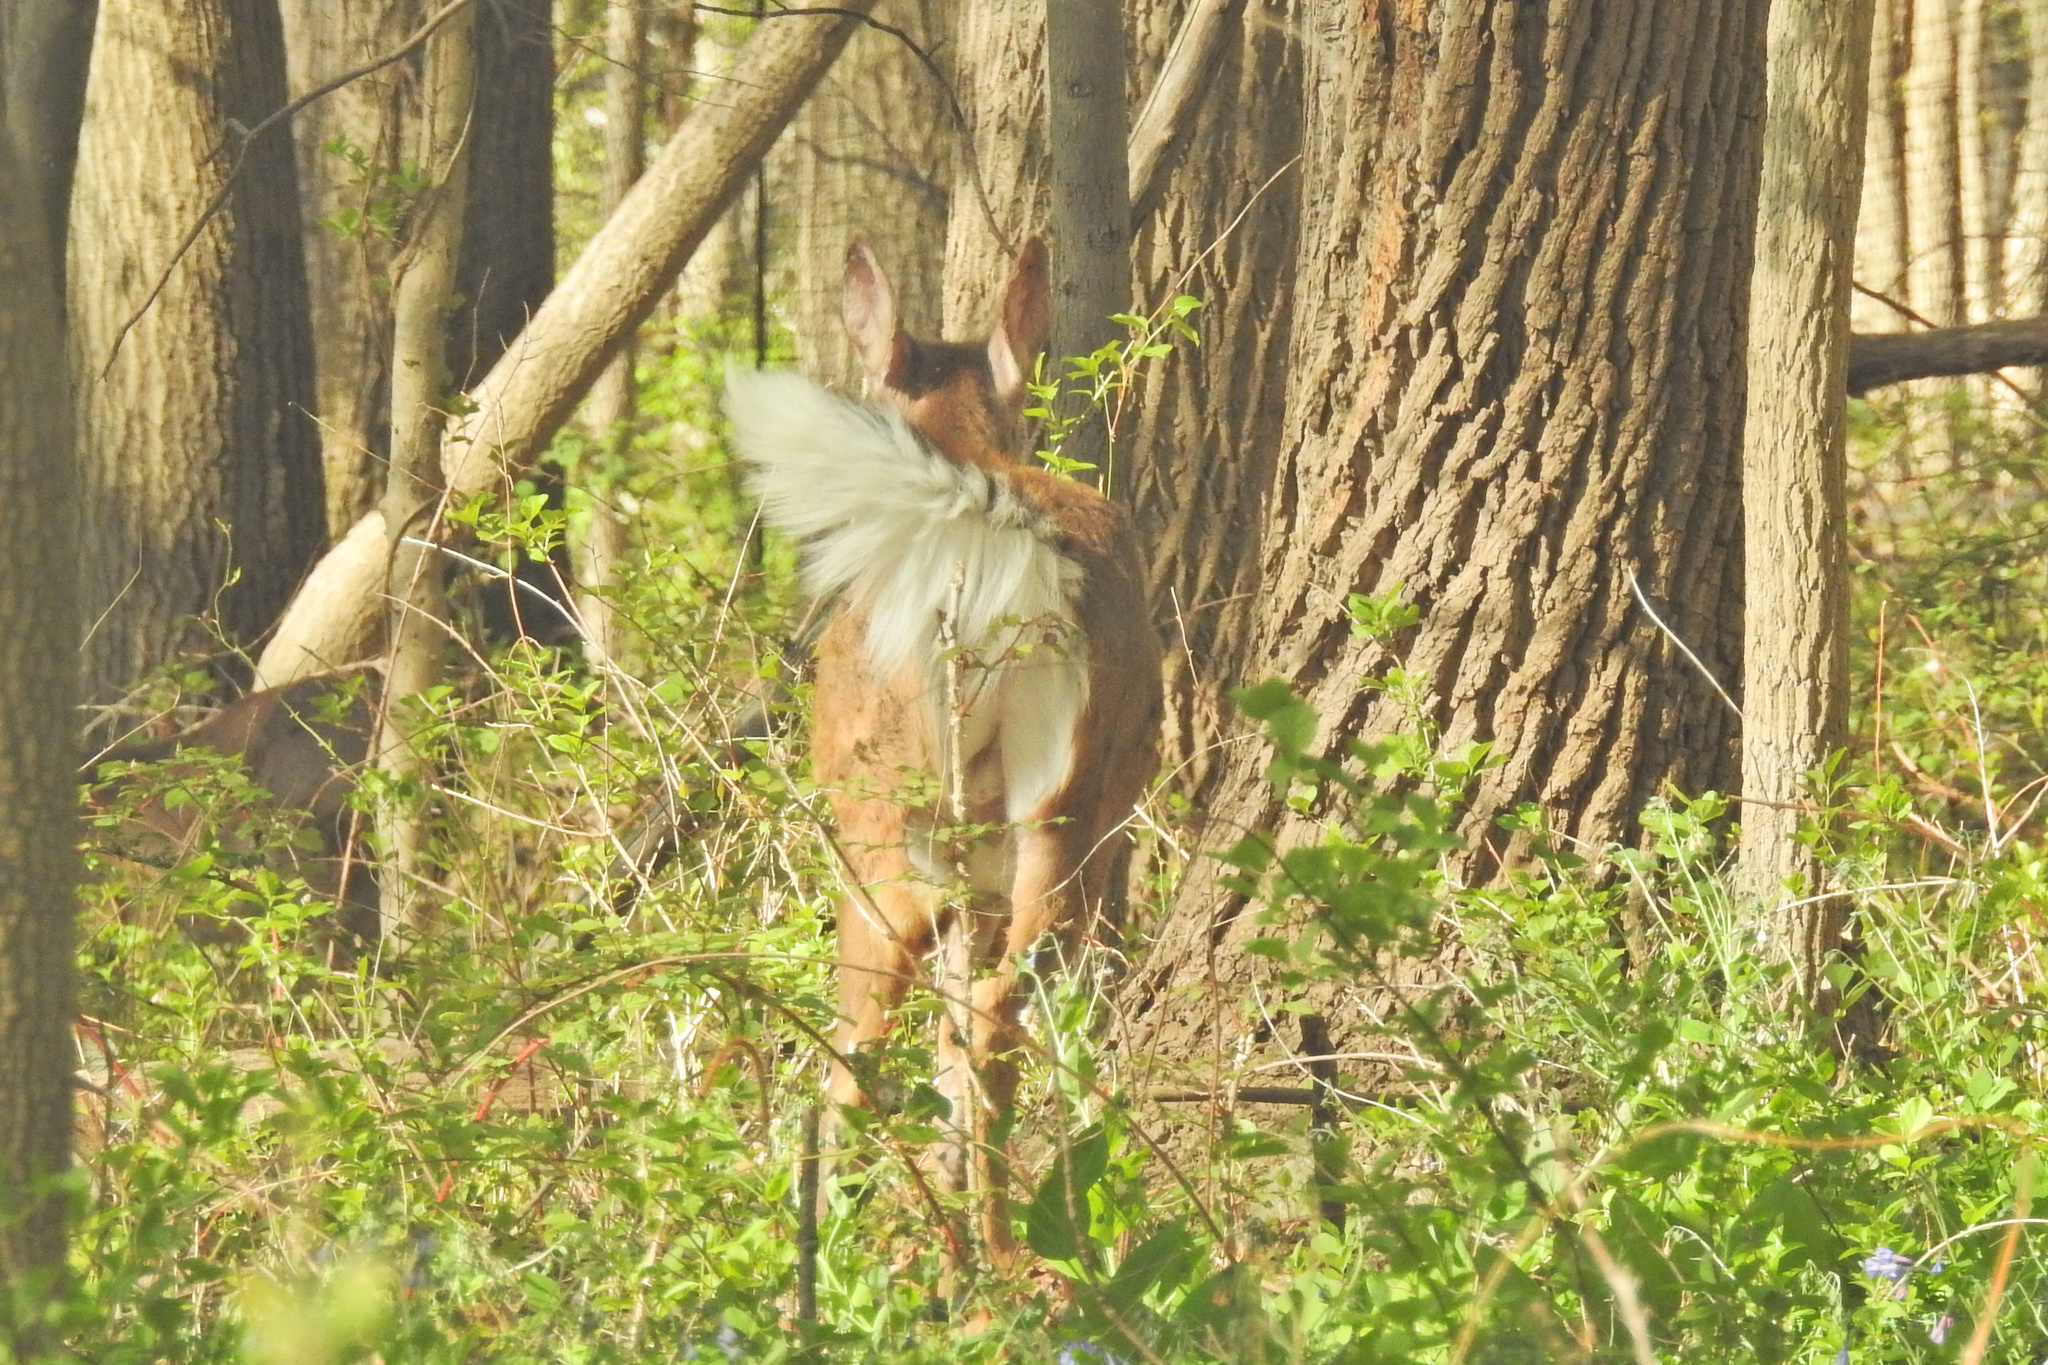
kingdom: Animalia
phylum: Chordata
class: Mammalia
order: Artiodactyla
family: Cervidae
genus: Odocoileus
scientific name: Odocoileus virginianus
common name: White-tailed deer
